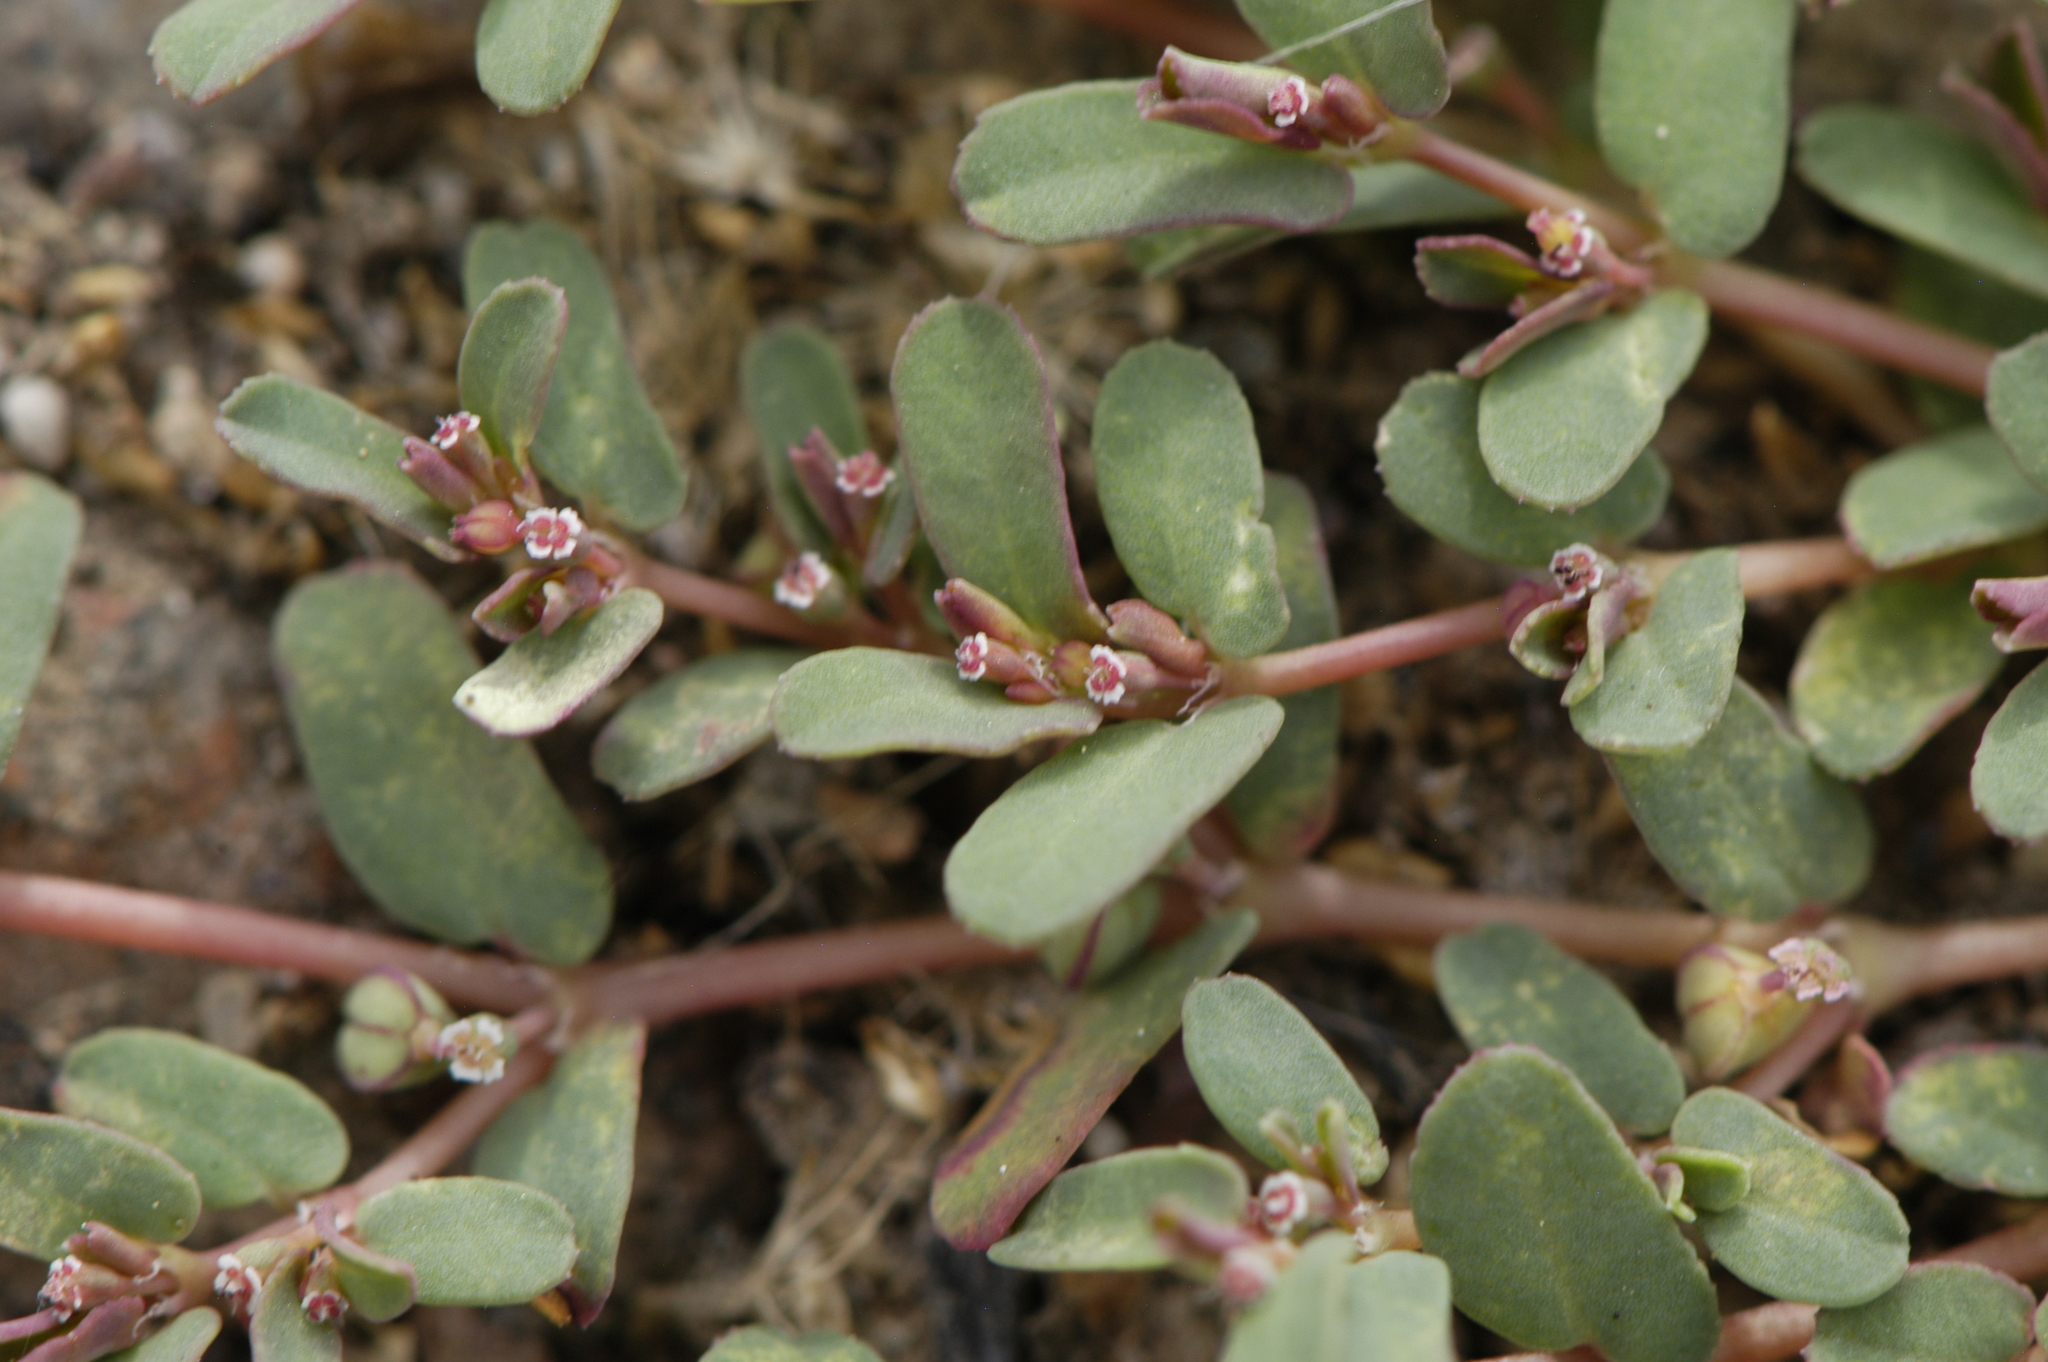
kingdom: Plantae
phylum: Tracheophyta
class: Magnoliopsida
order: Malpighiales
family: Euphorbiaceae
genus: Euphorbia
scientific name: Euphorbia glyptosperma
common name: Corrugate-seeded spurge
